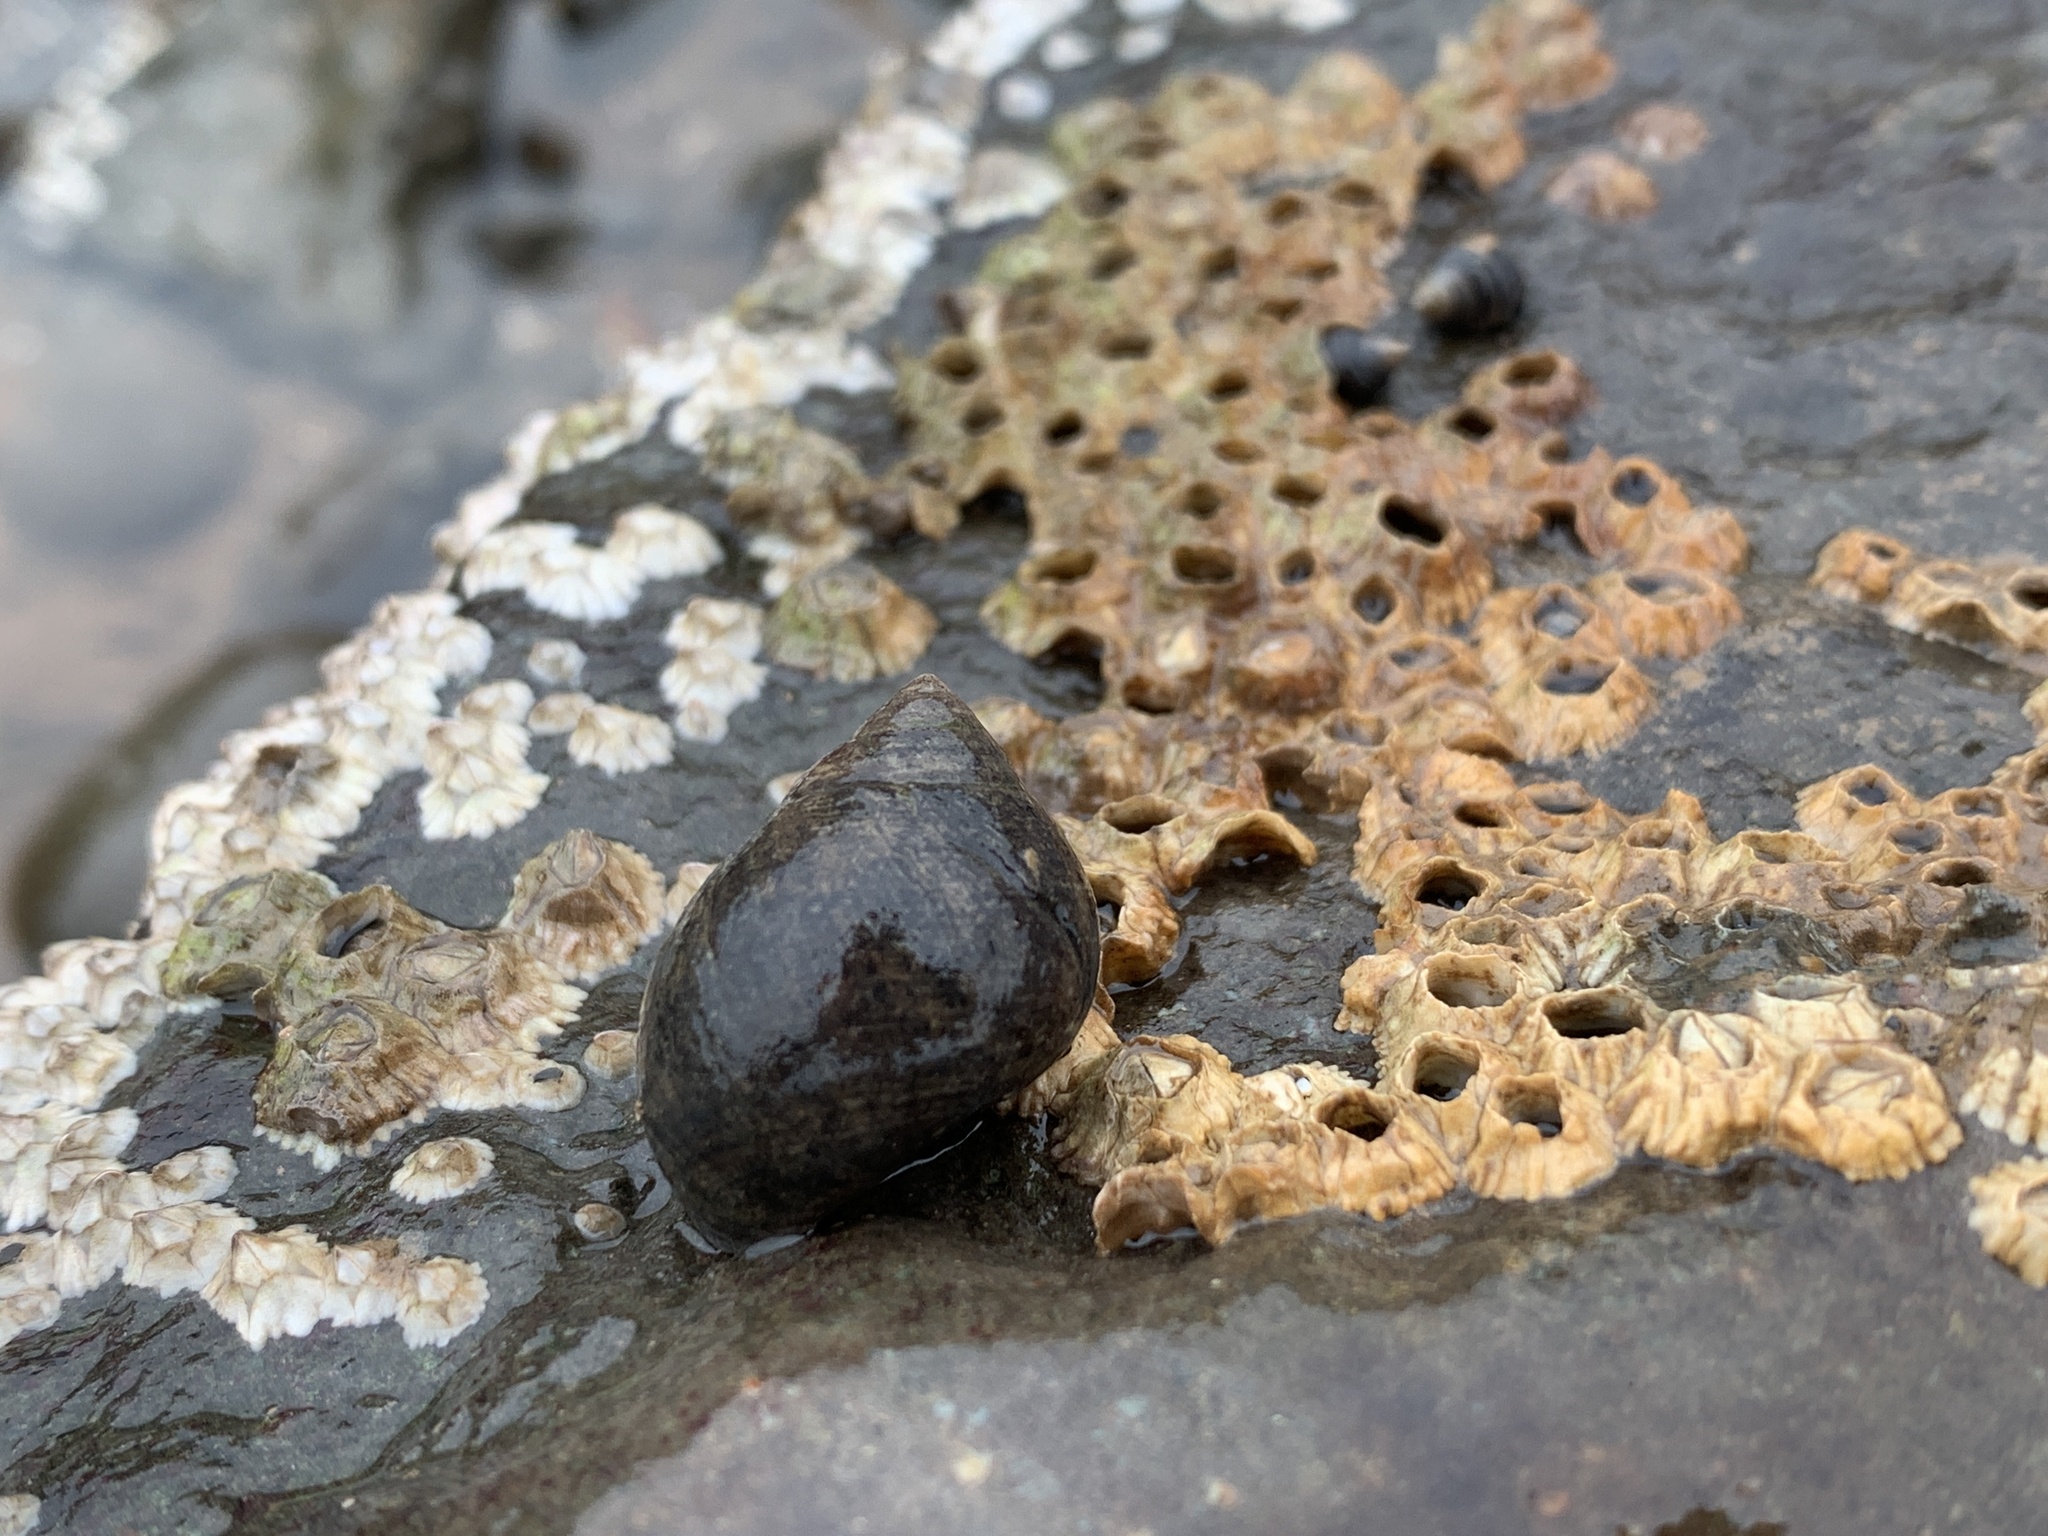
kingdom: Animalia
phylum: Mollusca
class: Gastropoda
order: Littorinimorpha
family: Littorinidae
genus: Littorina
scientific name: Littorina littorea
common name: Common periwinkle
